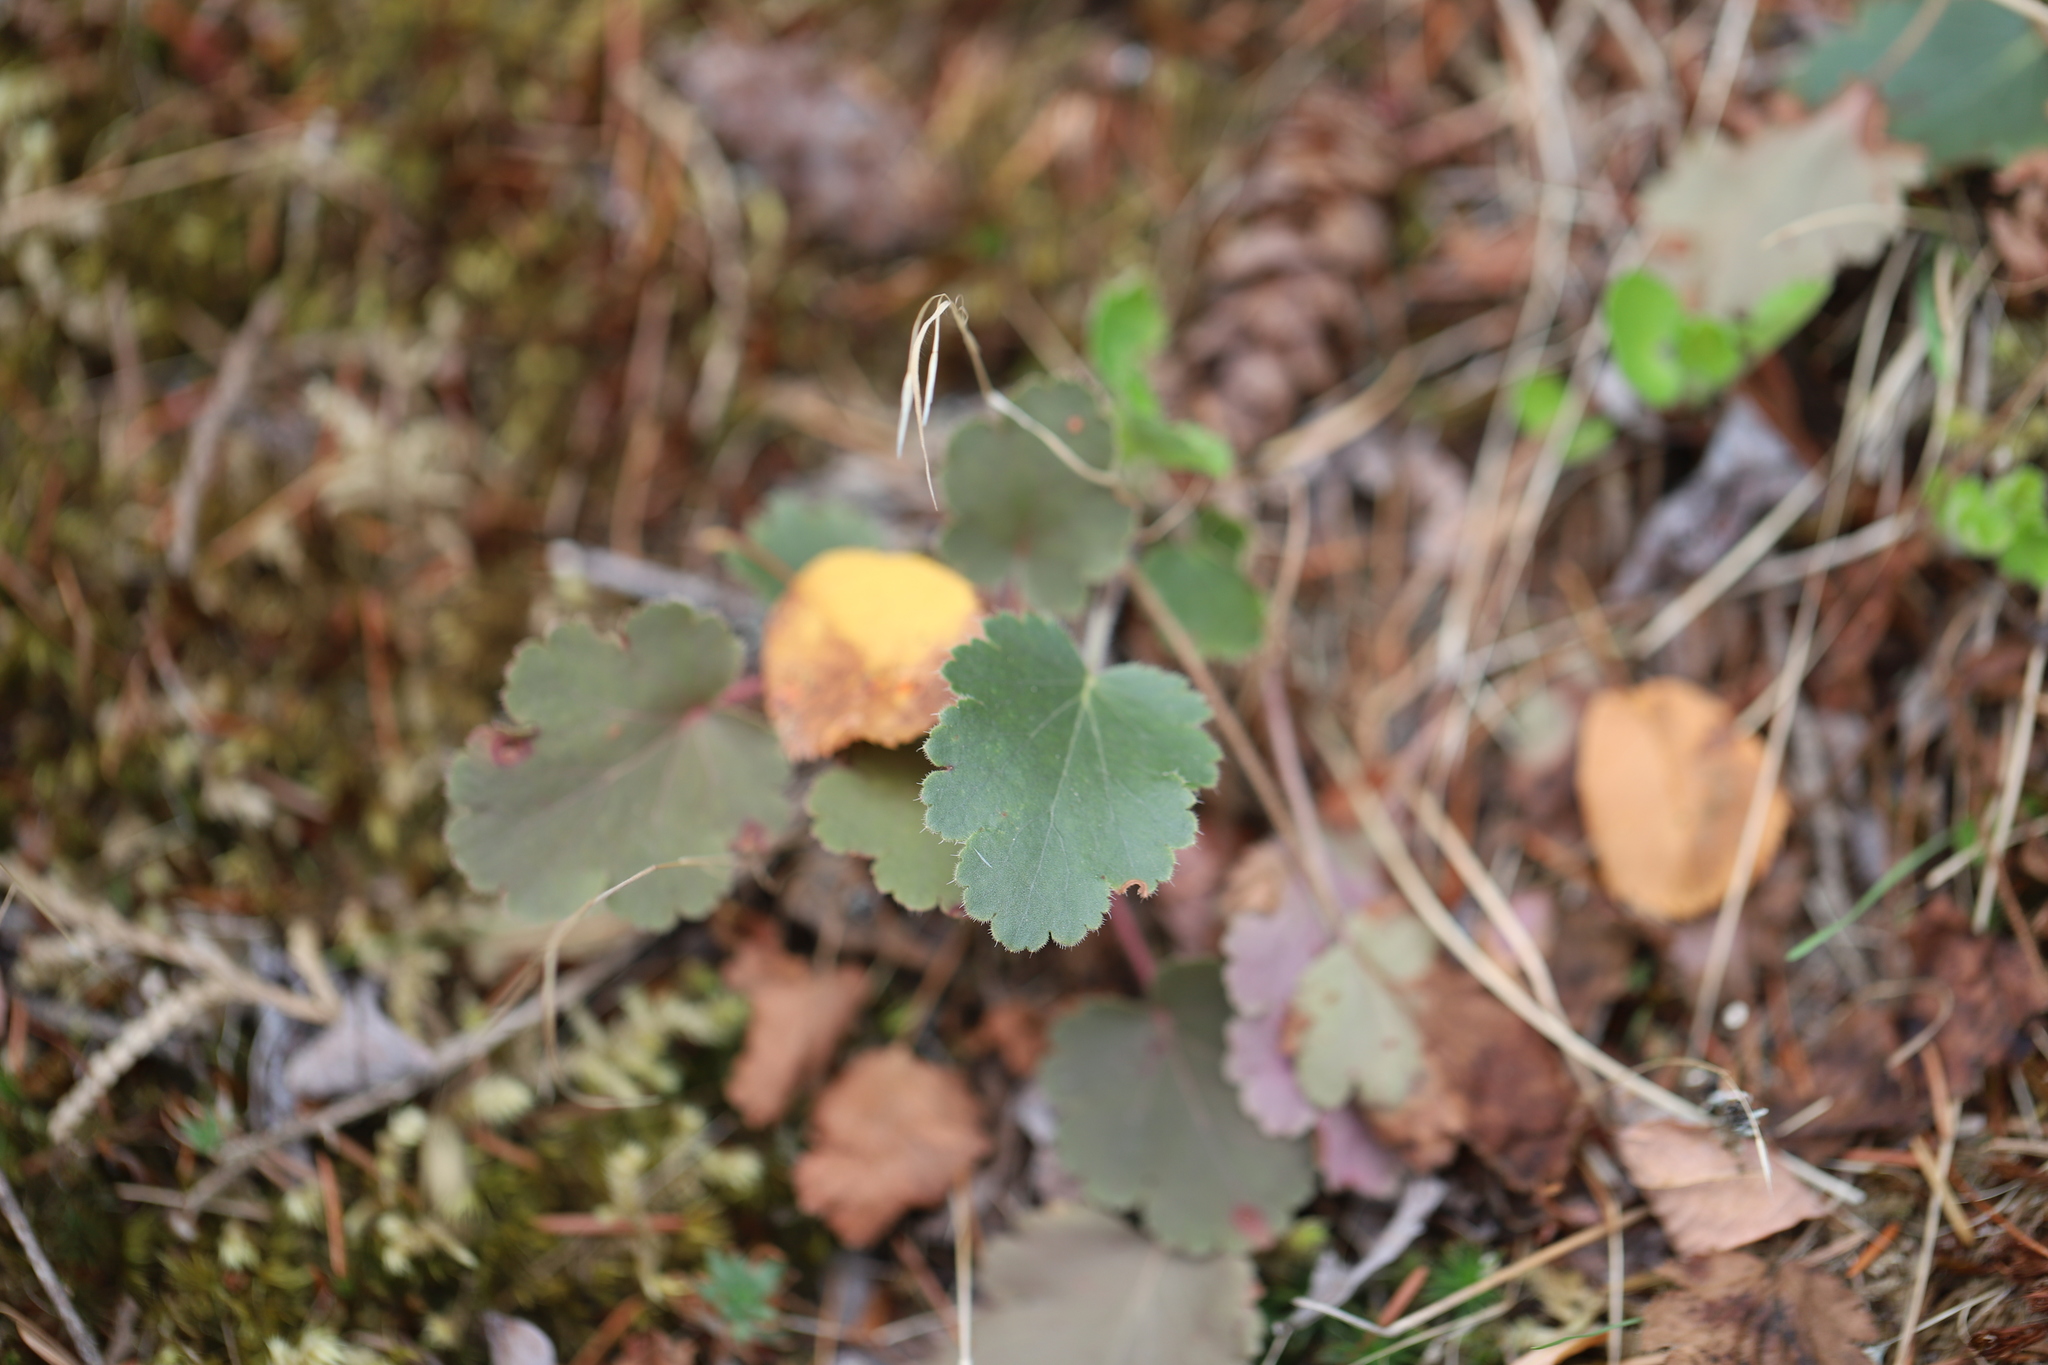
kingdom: Plantae
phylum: Tracheophyta
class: Magnoliopsida
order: Saxifragales
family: Saxifragaceae
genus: Heuchera
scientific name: Heuchera cylindrica
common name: Mat alumroot
